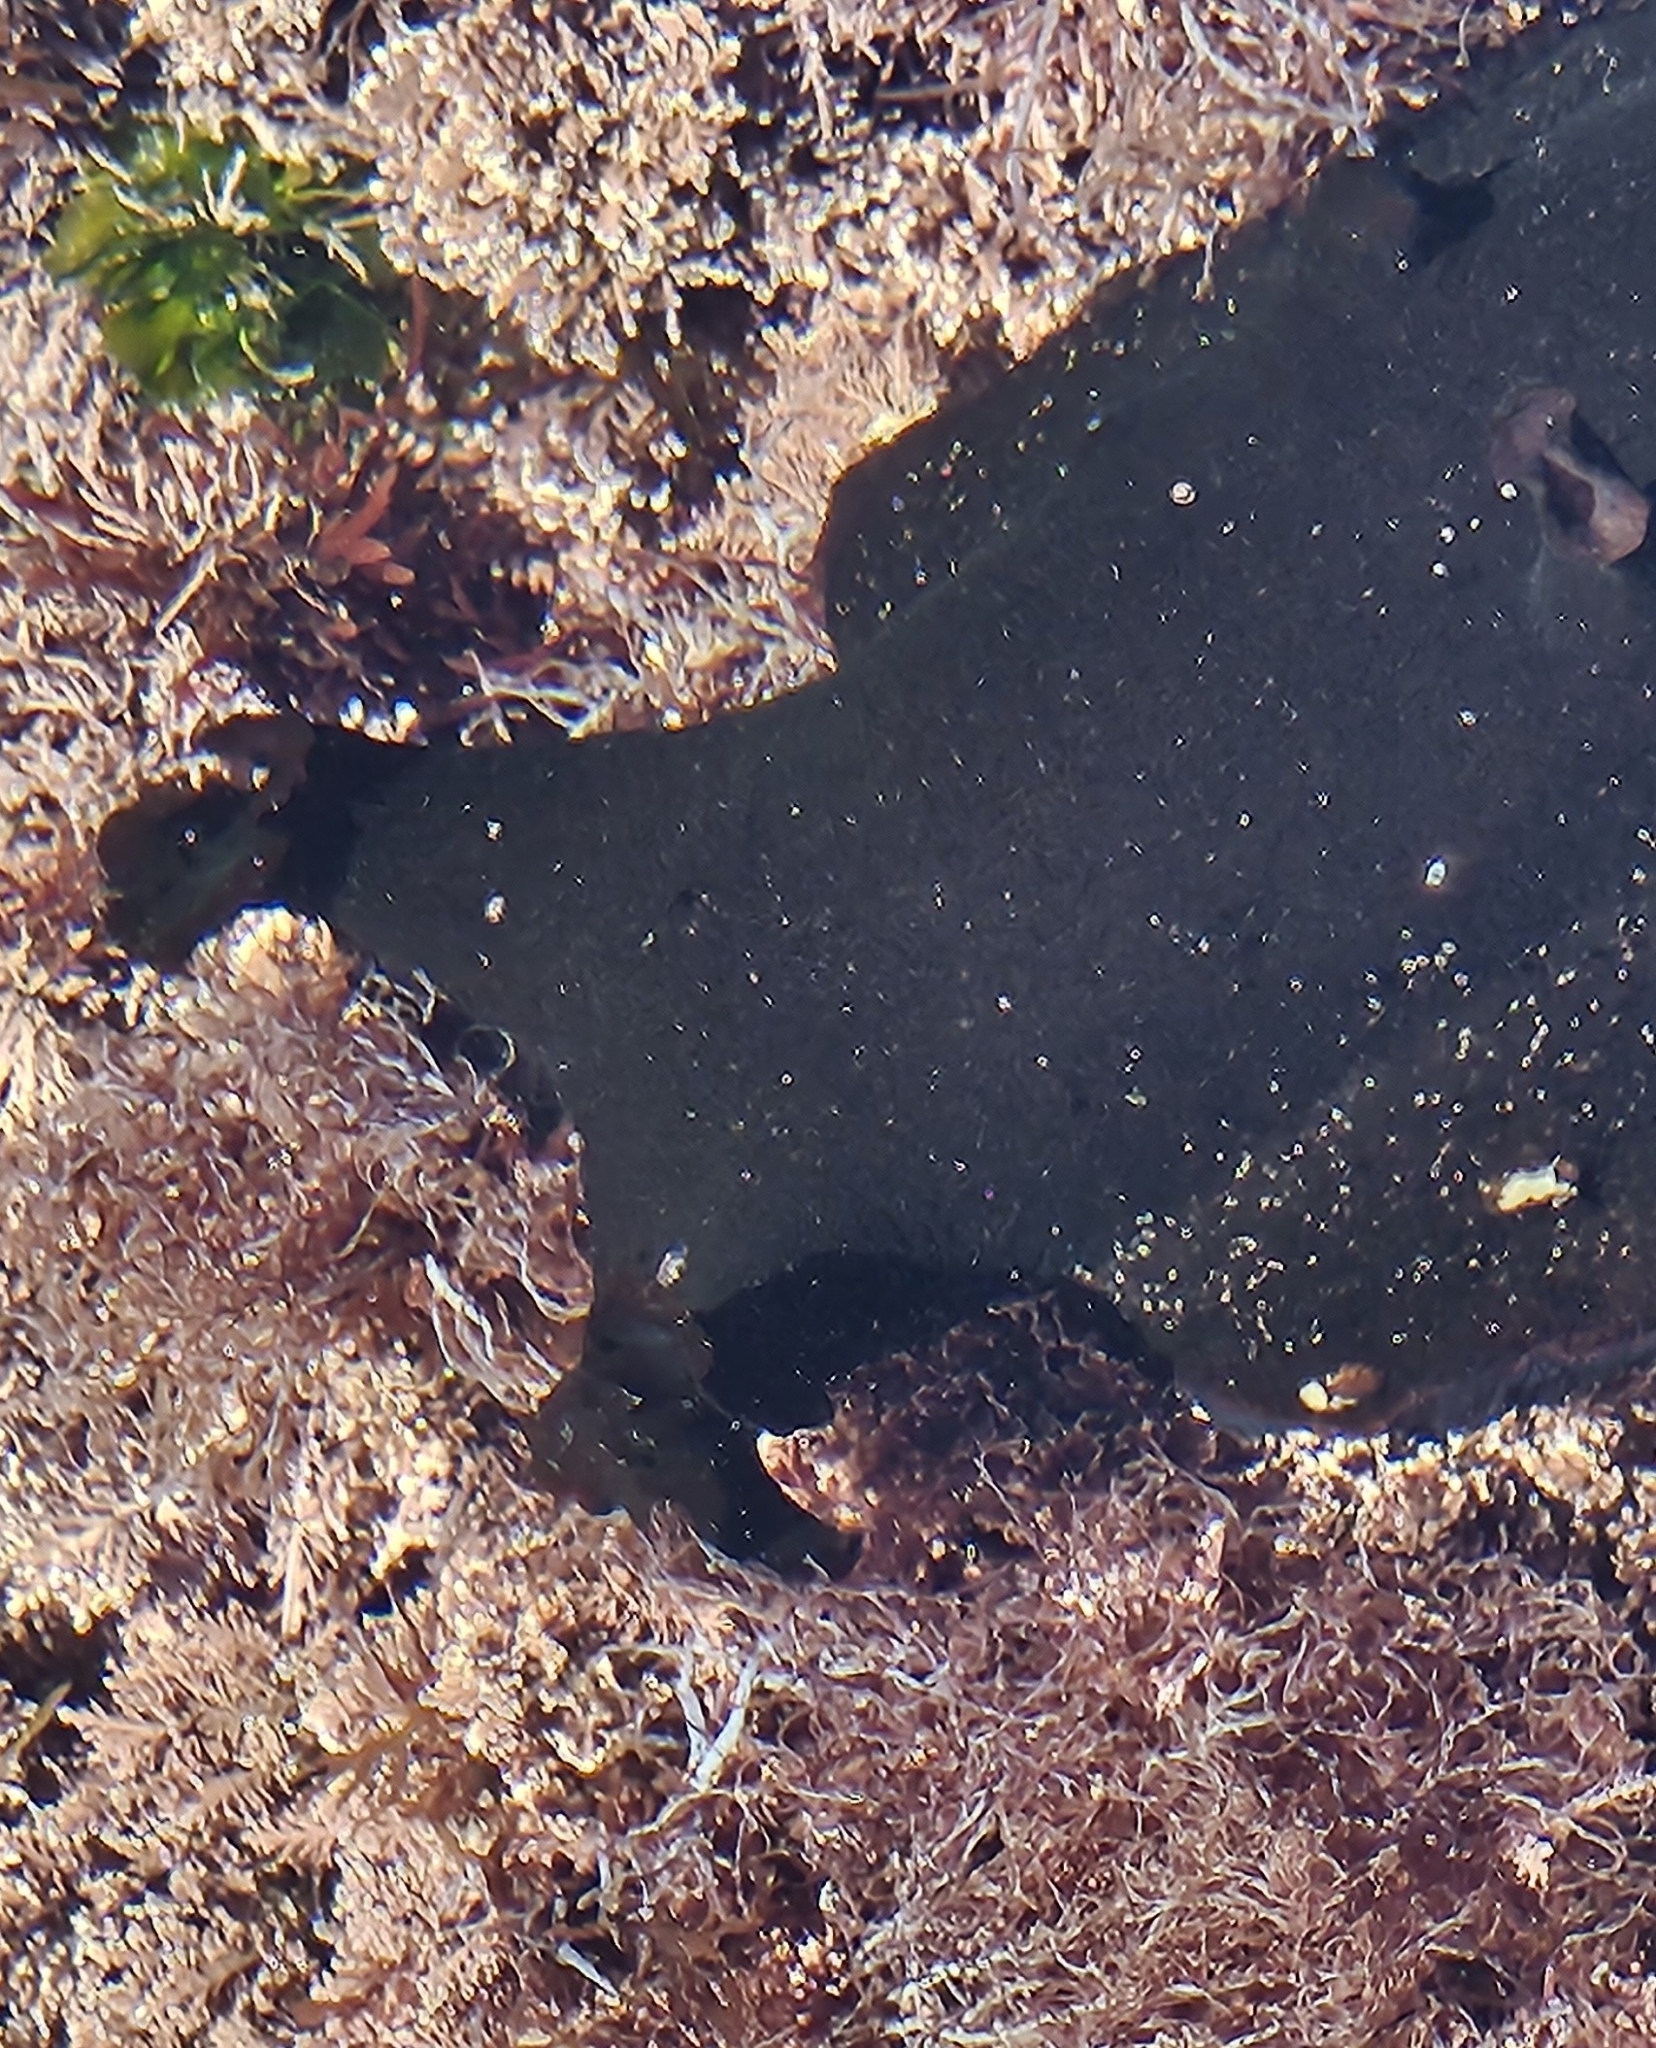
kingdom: Animalia
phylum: Mollusca
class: Gastropoda
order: Aplysiida
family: Aplysiidae
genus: Aplysia
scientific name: Aplysia vaccaria
